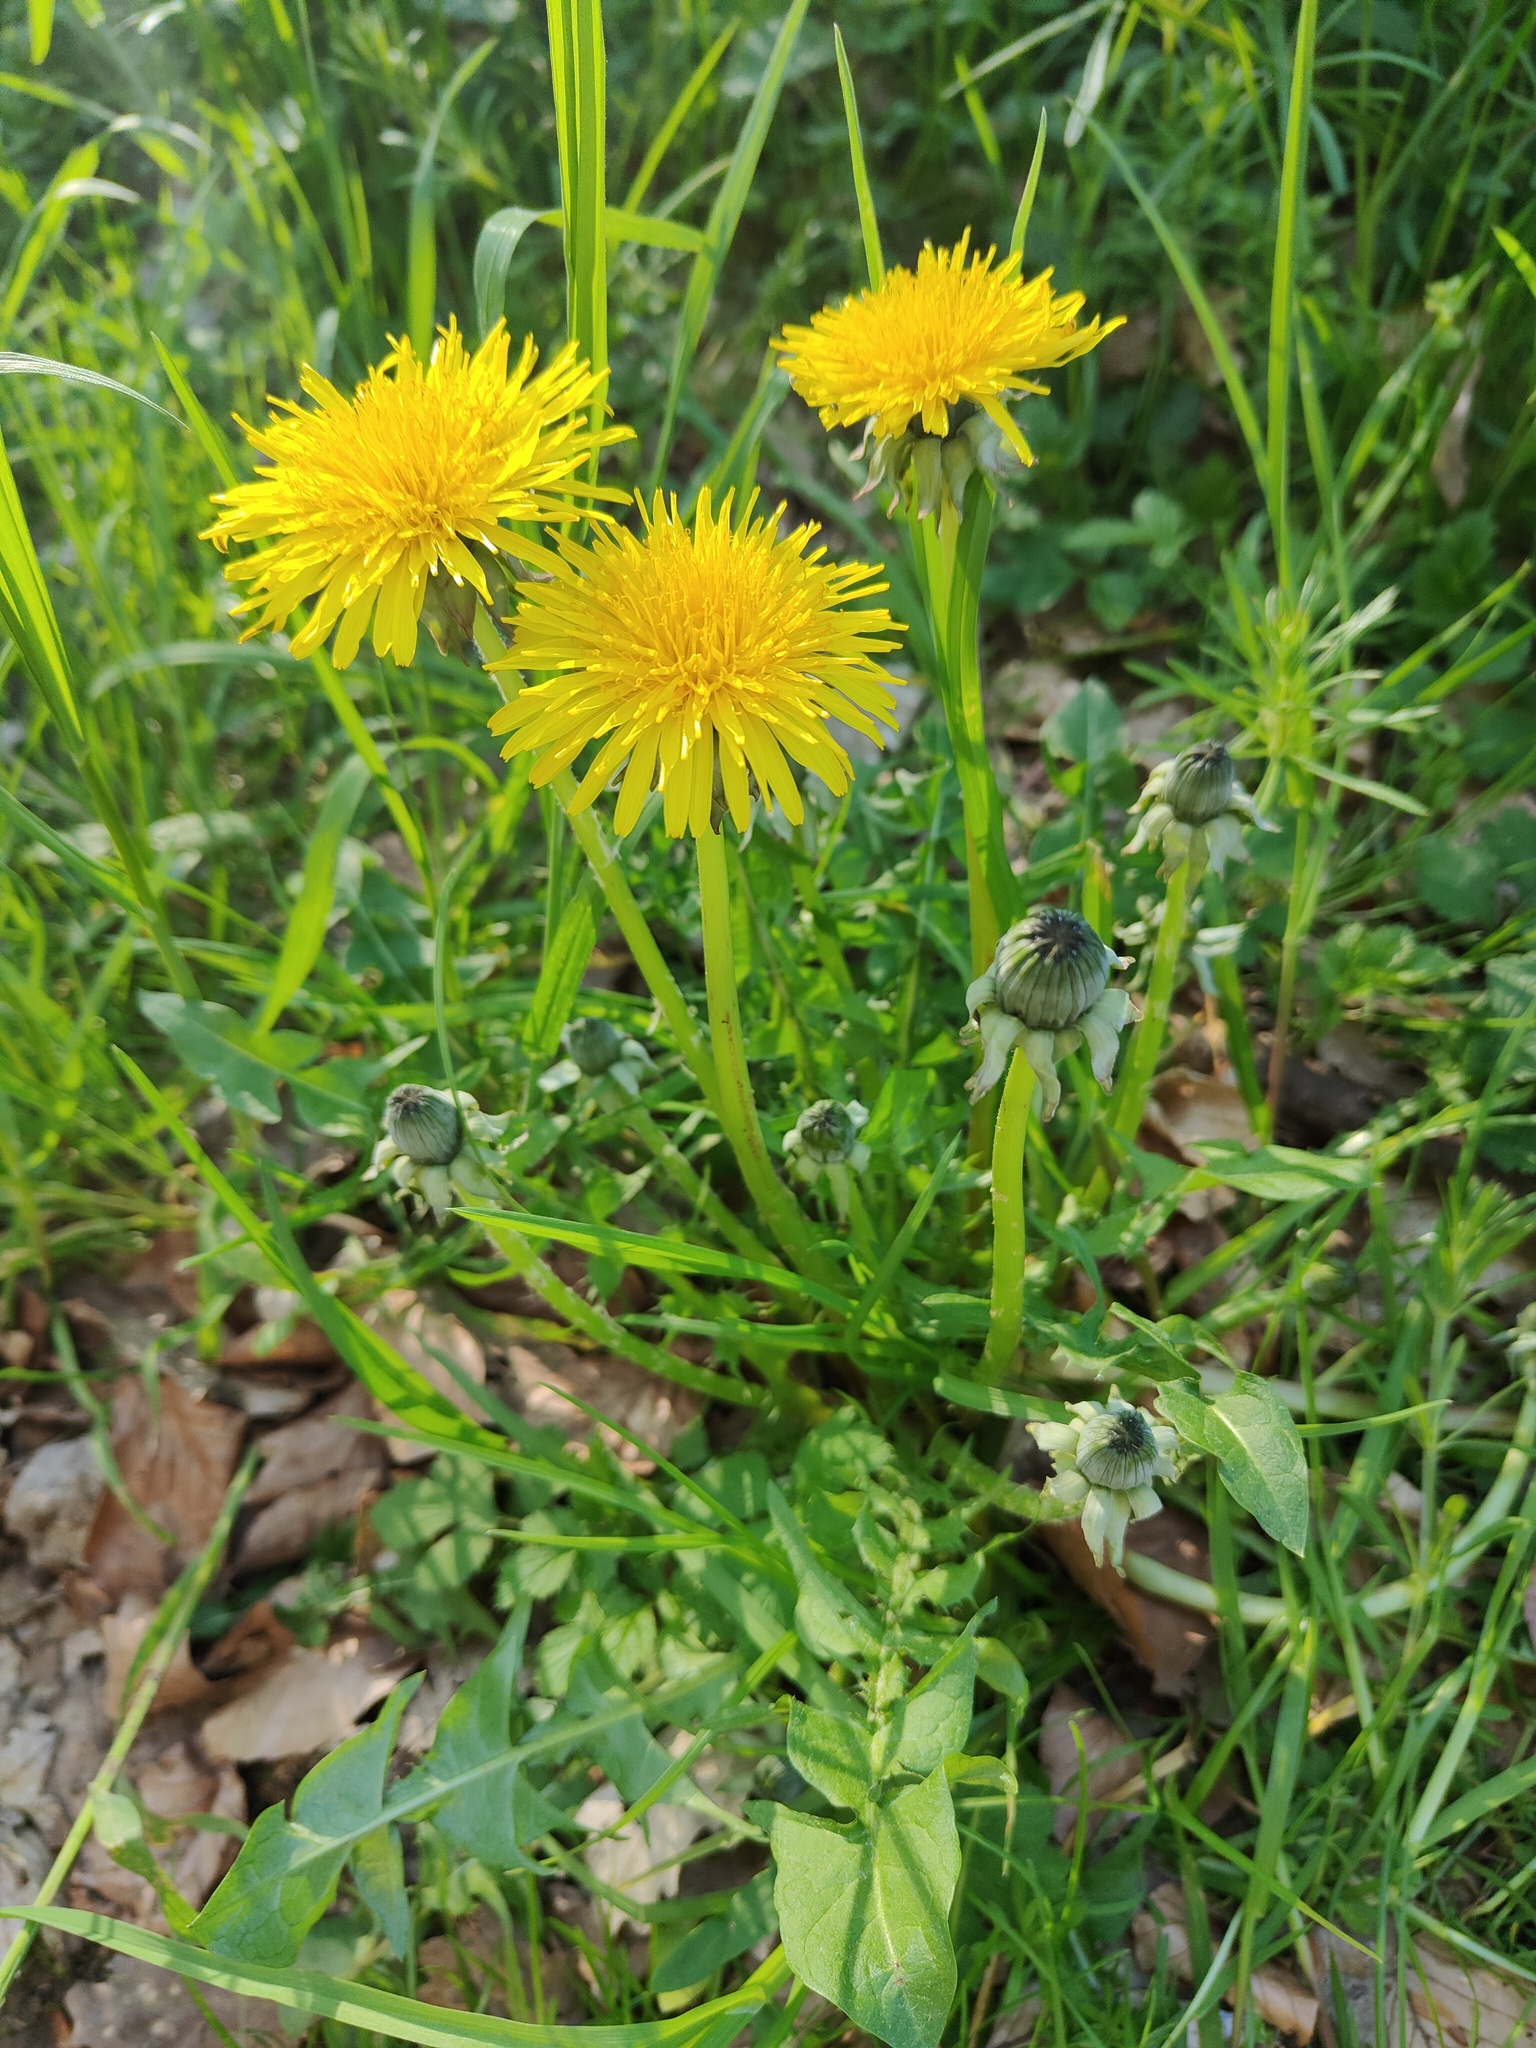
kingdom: Plantae
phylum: Tracheophyta
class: Magnoliopsida
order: Asterales
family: Asteraceae
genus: Taraxacum
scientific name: Taraxacum officinale
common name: Common dandelion
